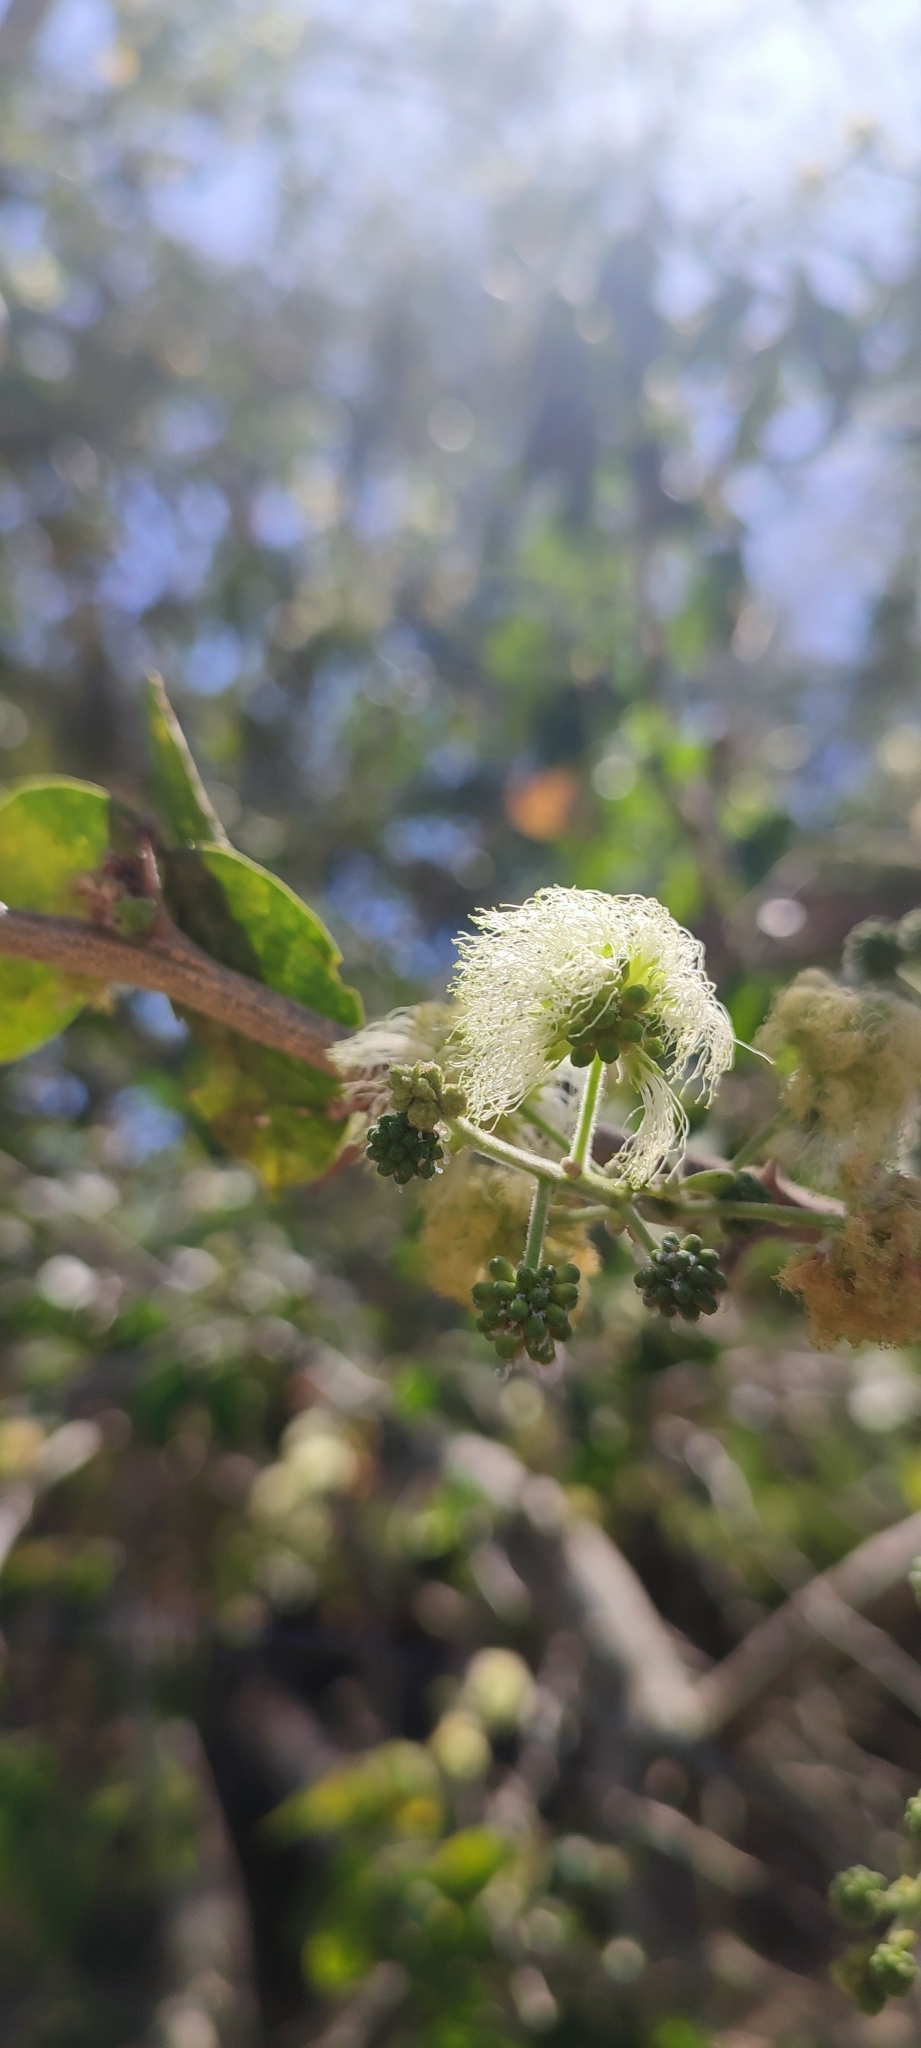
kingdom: Plantae
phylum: Tracheophyta
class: Magnoliopsida
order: Fabales
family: Fabaceae
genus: Pithecellobium
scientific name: Pithecellobium dulce
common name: Monkeypod
